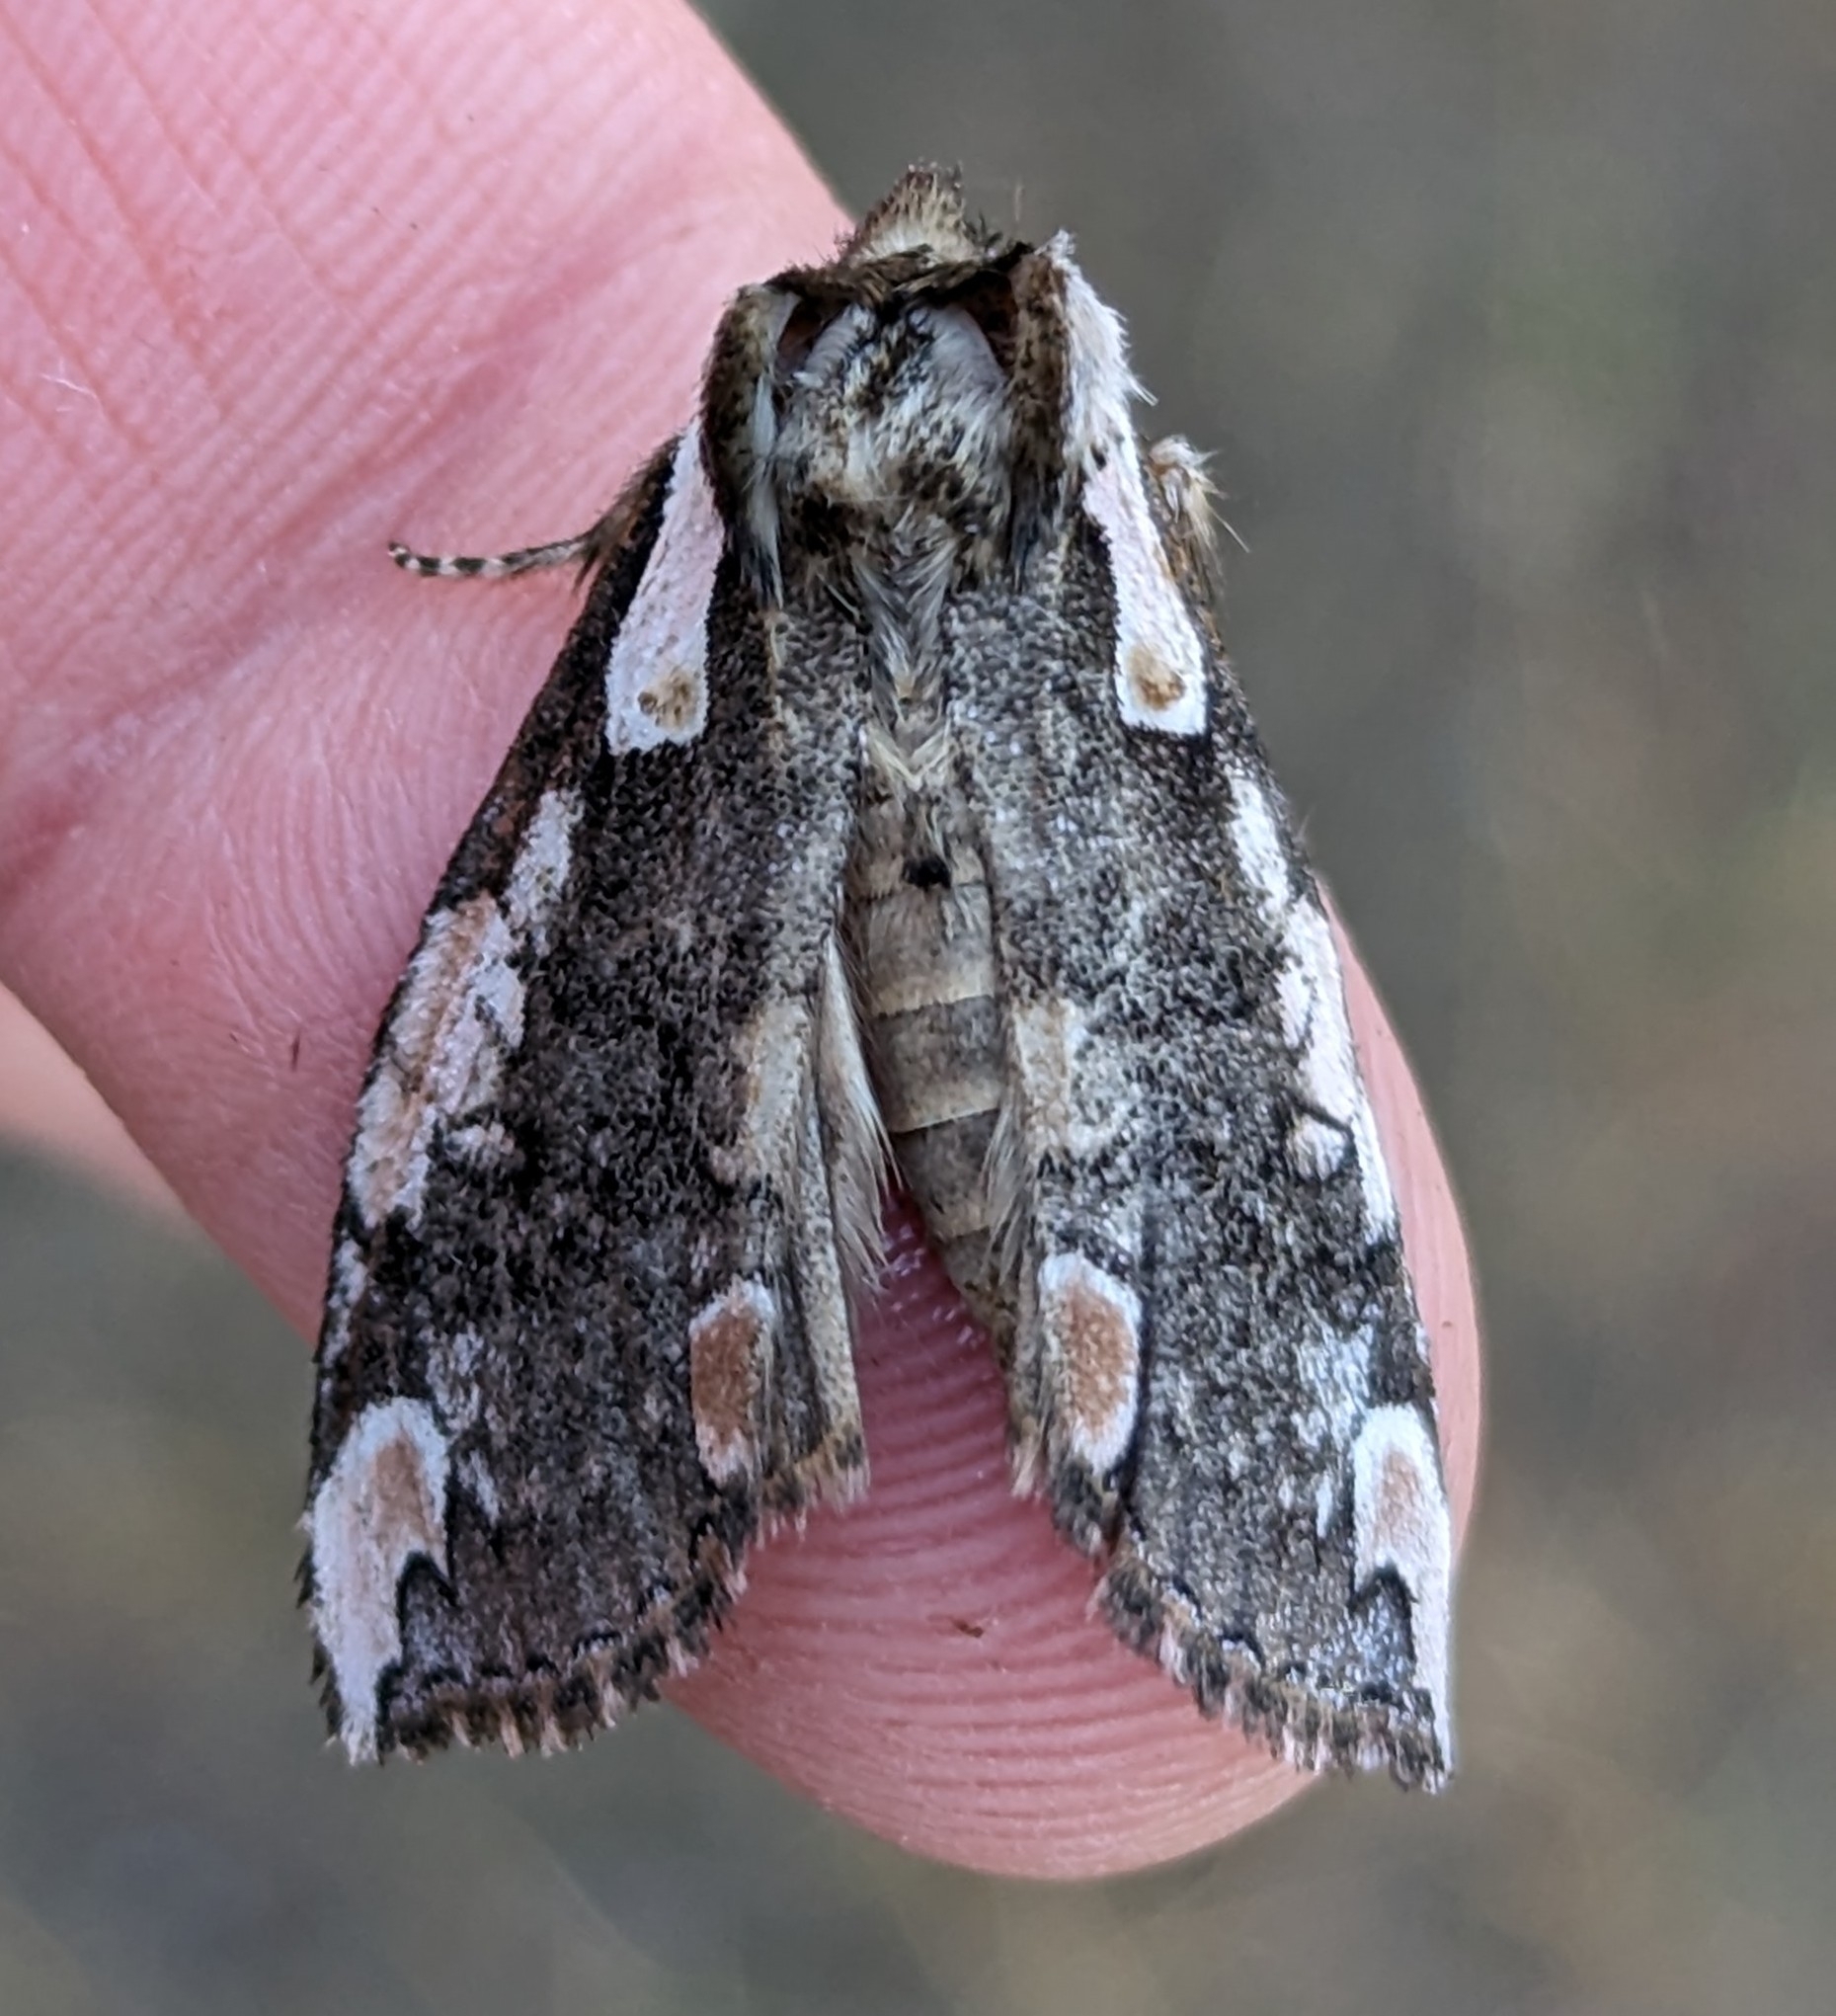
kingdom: Animalia
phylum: Arthropoda
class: Insecta
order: Lepidoptera
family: Drepanidae
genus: Euthyatira
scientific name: Euthyatira pudens
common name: Dogwood thyatirid moth
